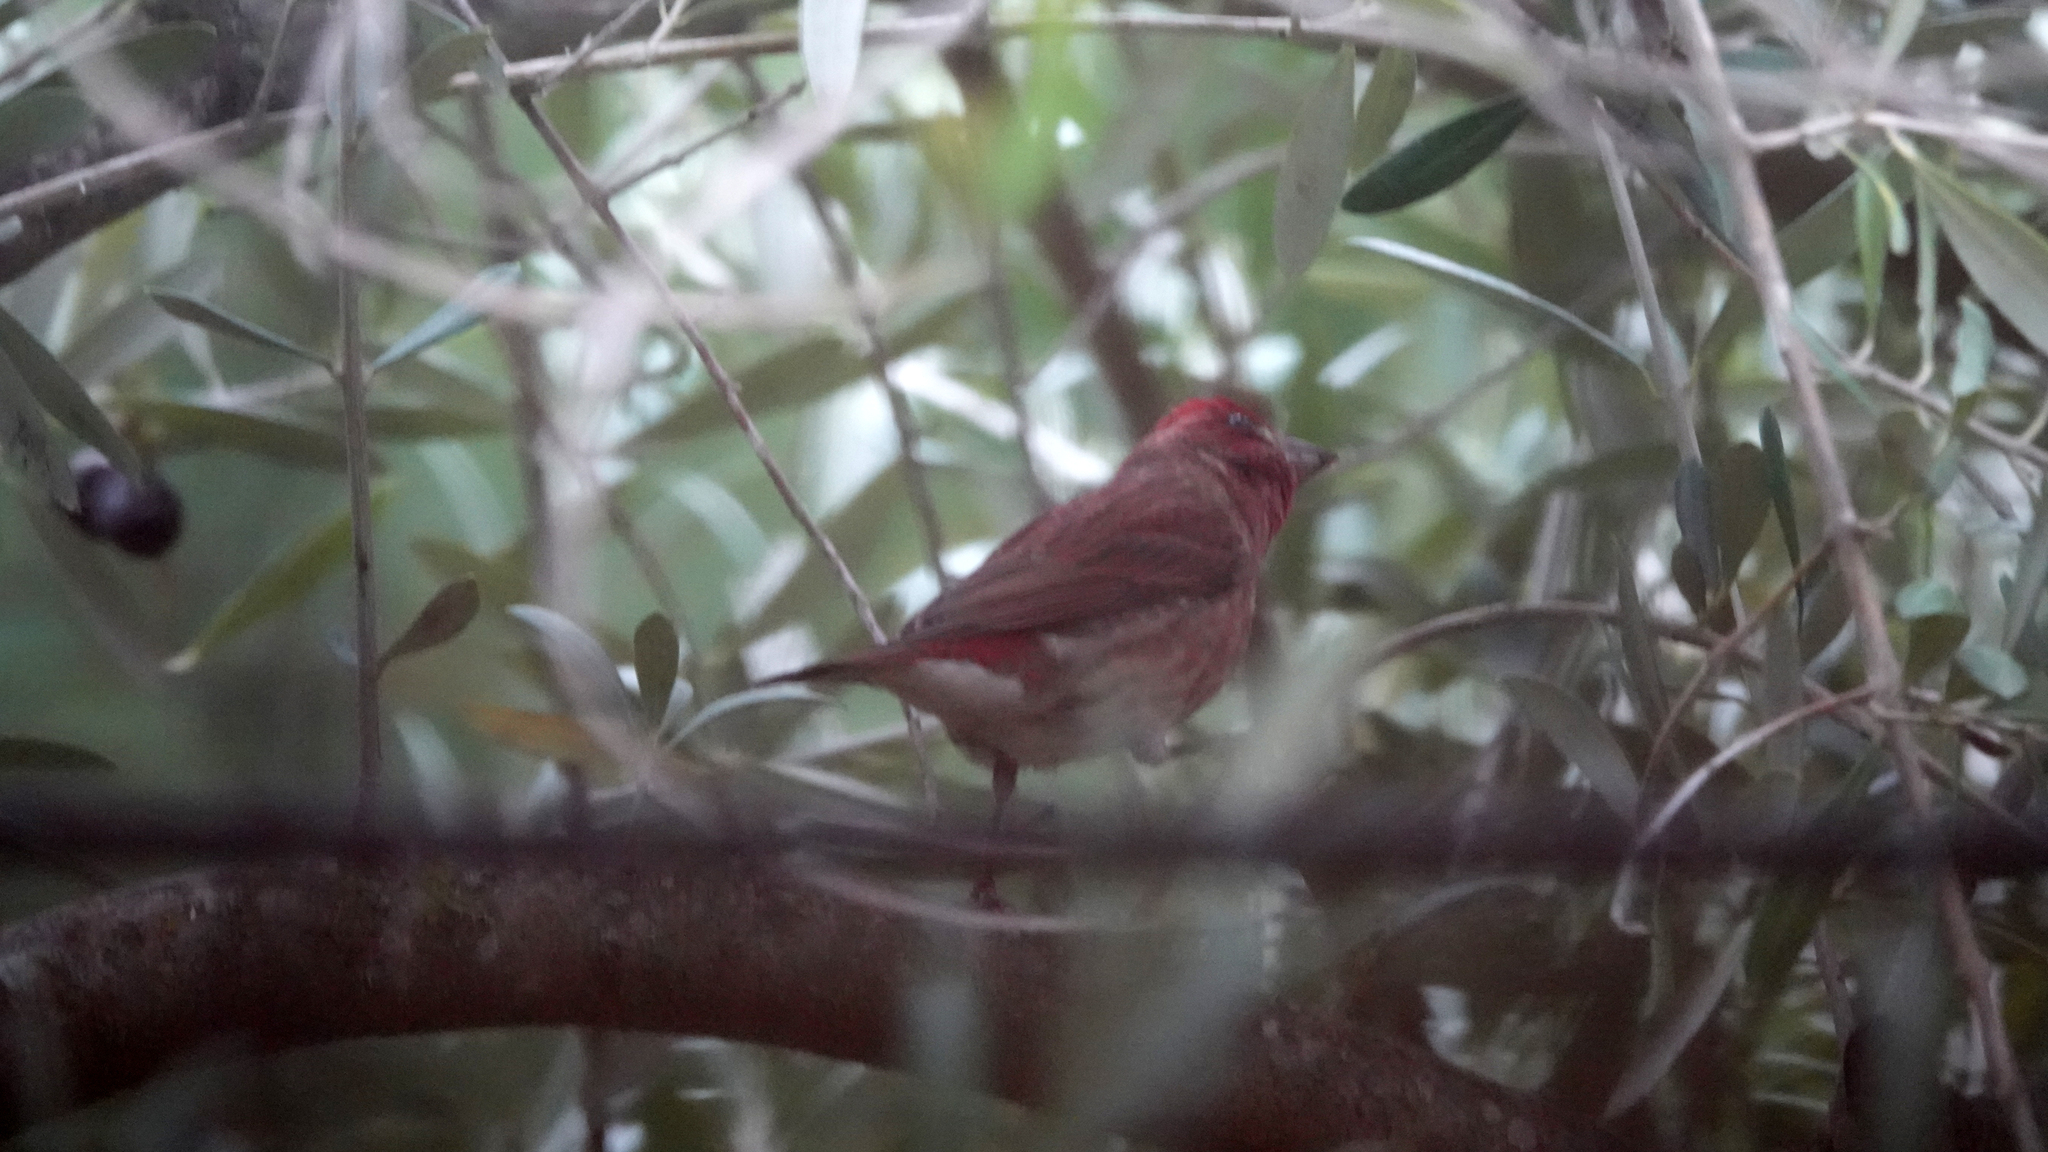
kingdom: Animalia
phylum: Chordata
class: Aves
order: Passeriformes
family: Fringillidae
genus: Haemorhous
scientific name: Haemorhous purpureus
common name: Purple finch
